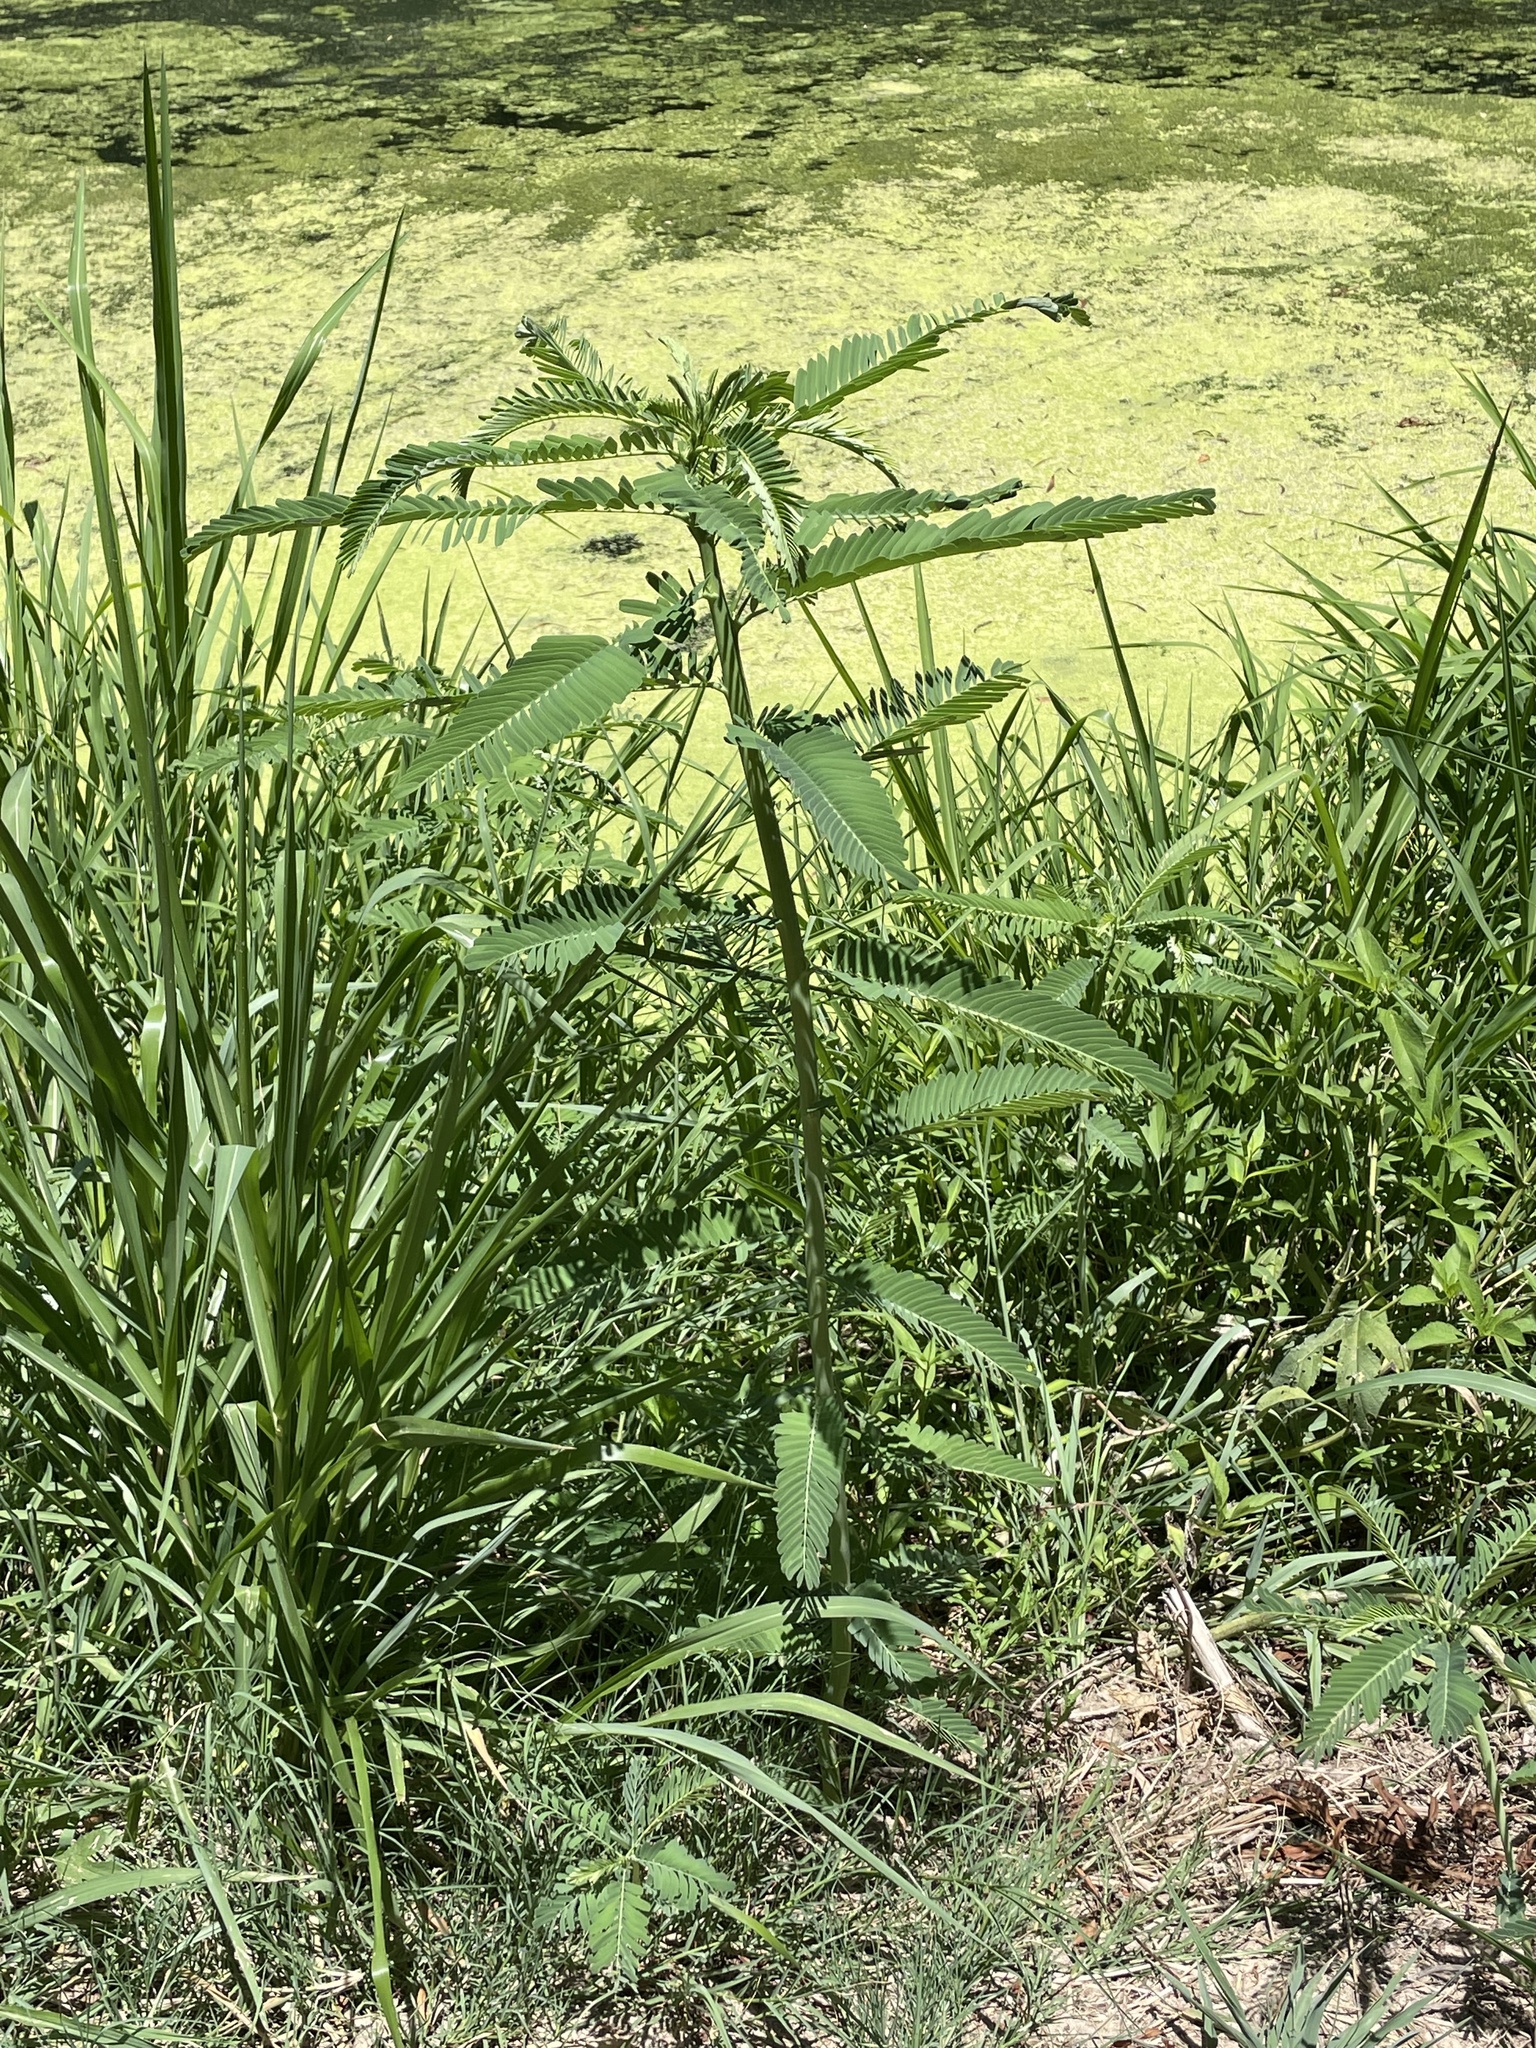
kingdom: Plantae
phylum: Tracheophyta
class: Magnoliopsida
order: Fabales
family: Fabaceae
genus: Sesbania
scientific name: Sesbania herbacea
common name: Bigpod sesbania
